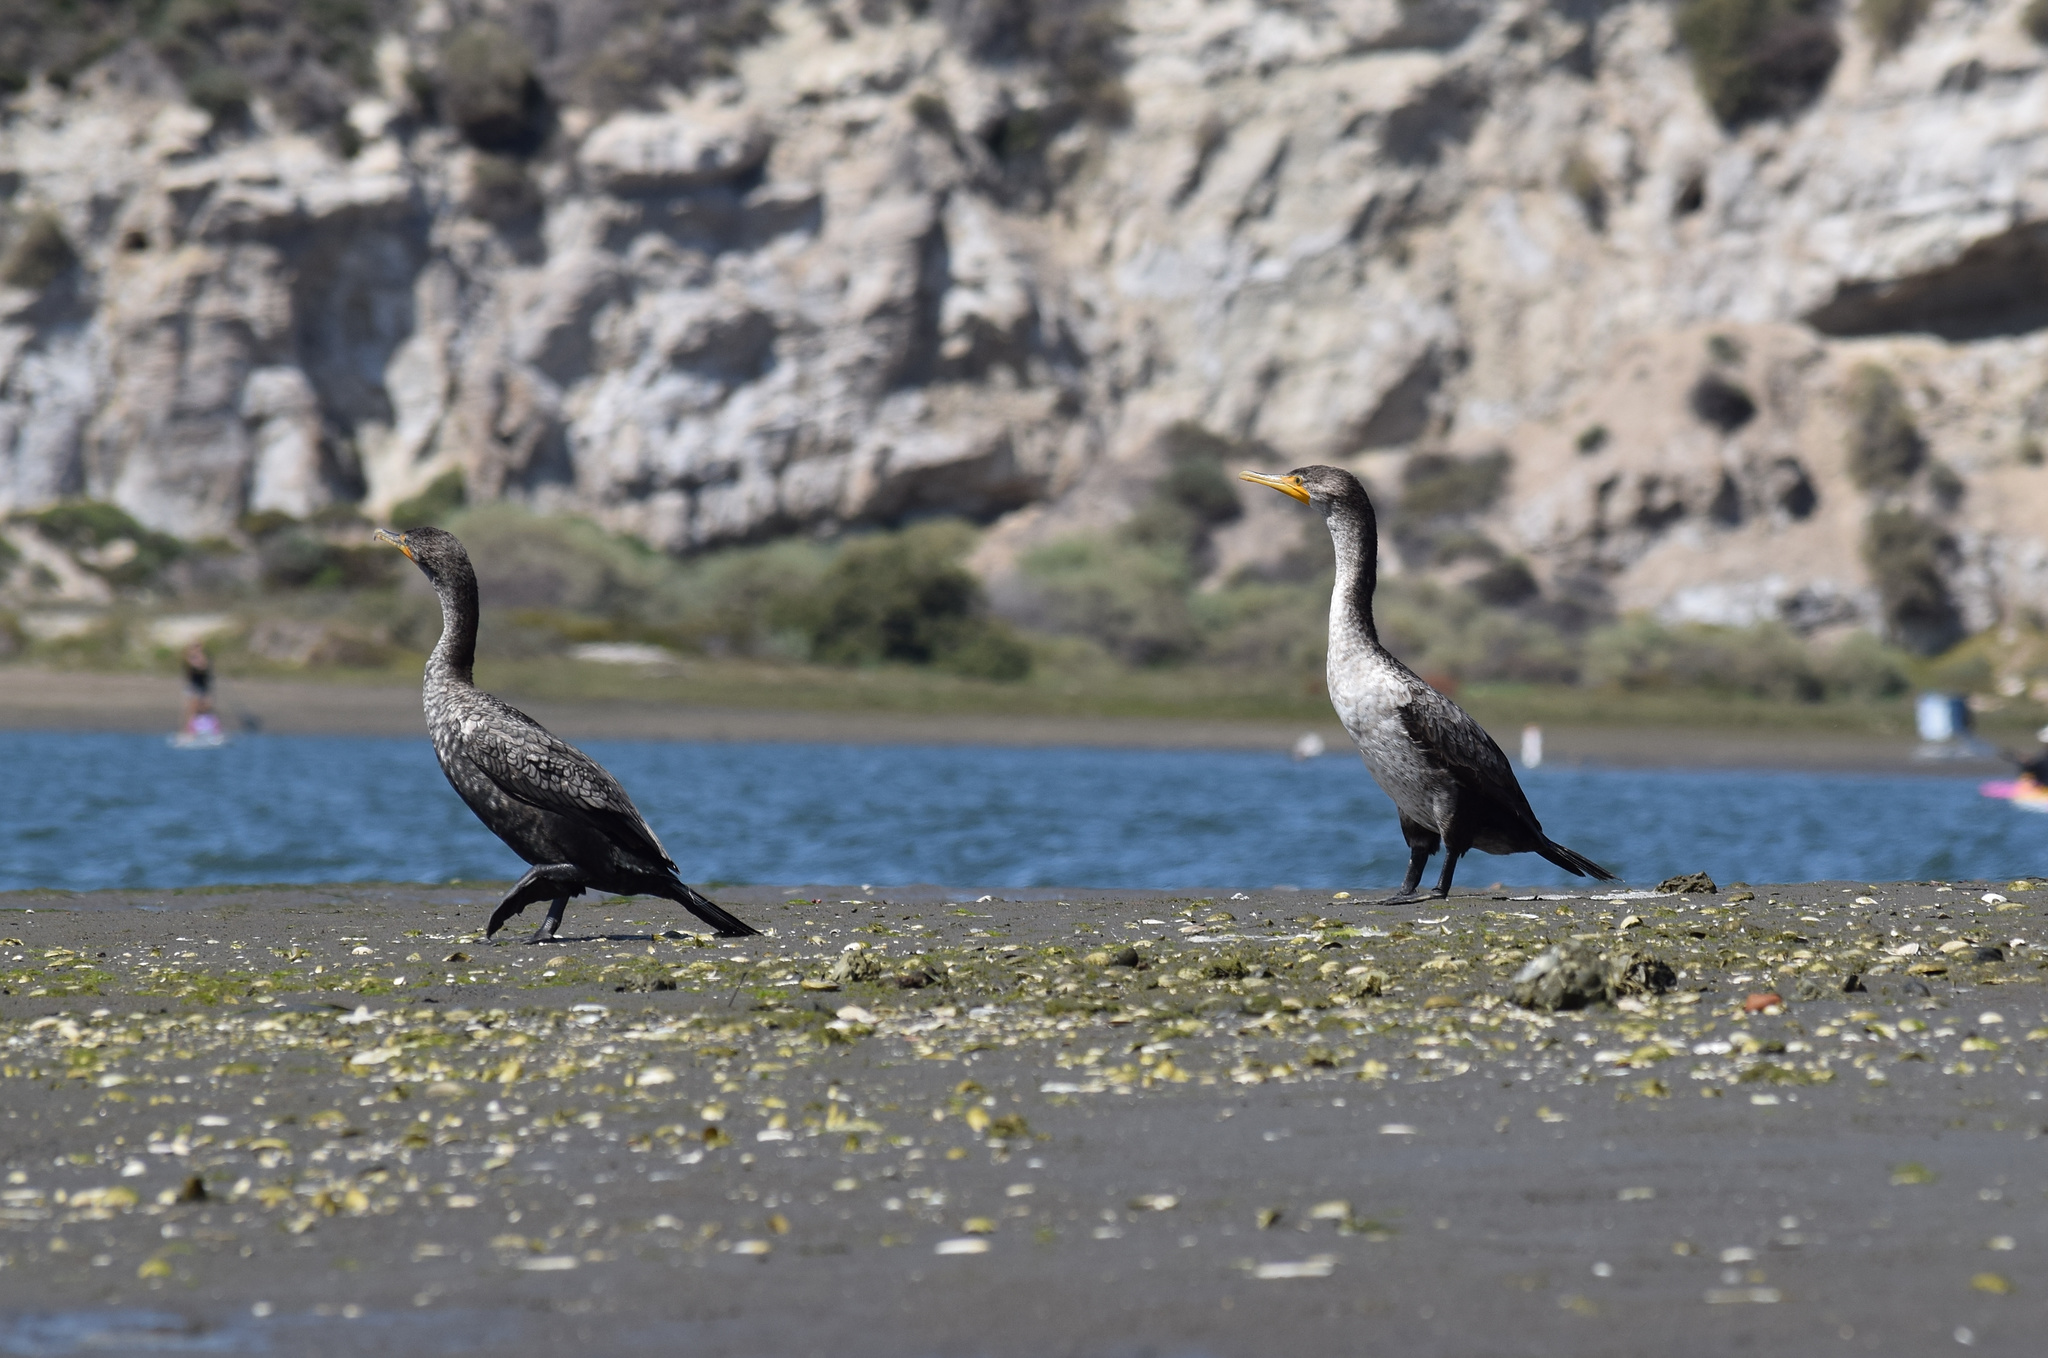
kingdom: Animalia
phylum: Chordata
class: Aves
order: Suliformes
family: Phalacrocoracidae
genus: Phalacrocorax
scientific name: Phalacrocorax auritus
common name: Double-crested cormorant
